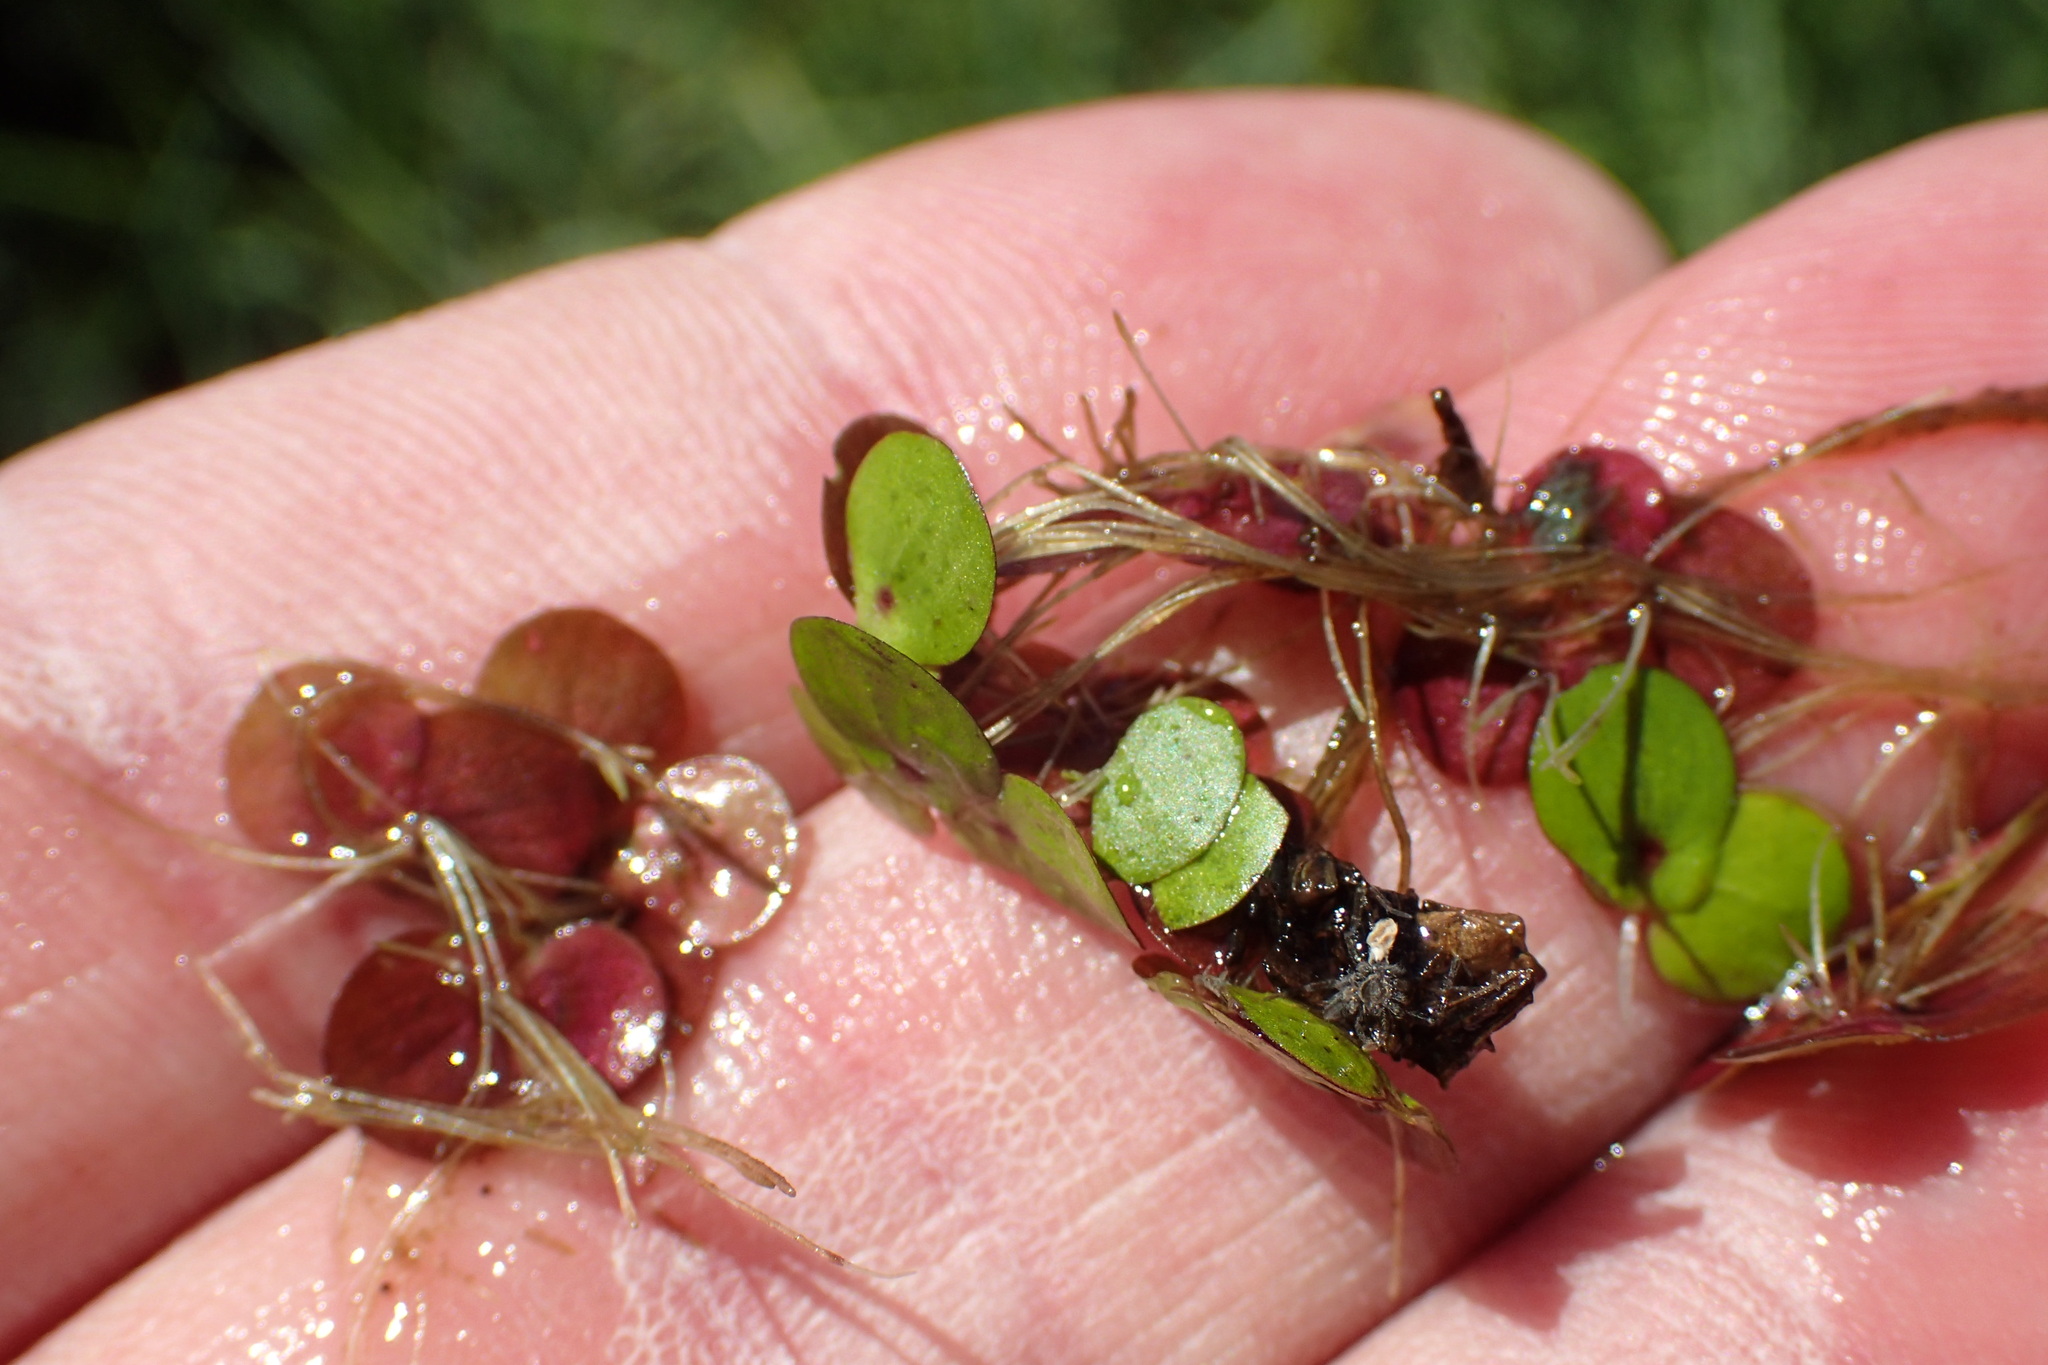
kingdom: Plantae
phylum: Tracheophyta
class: Liliopsida
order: Alismatales
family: Araceae
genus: Spirodela
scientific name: Spirodela polyrhiza
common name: Great duckweed
